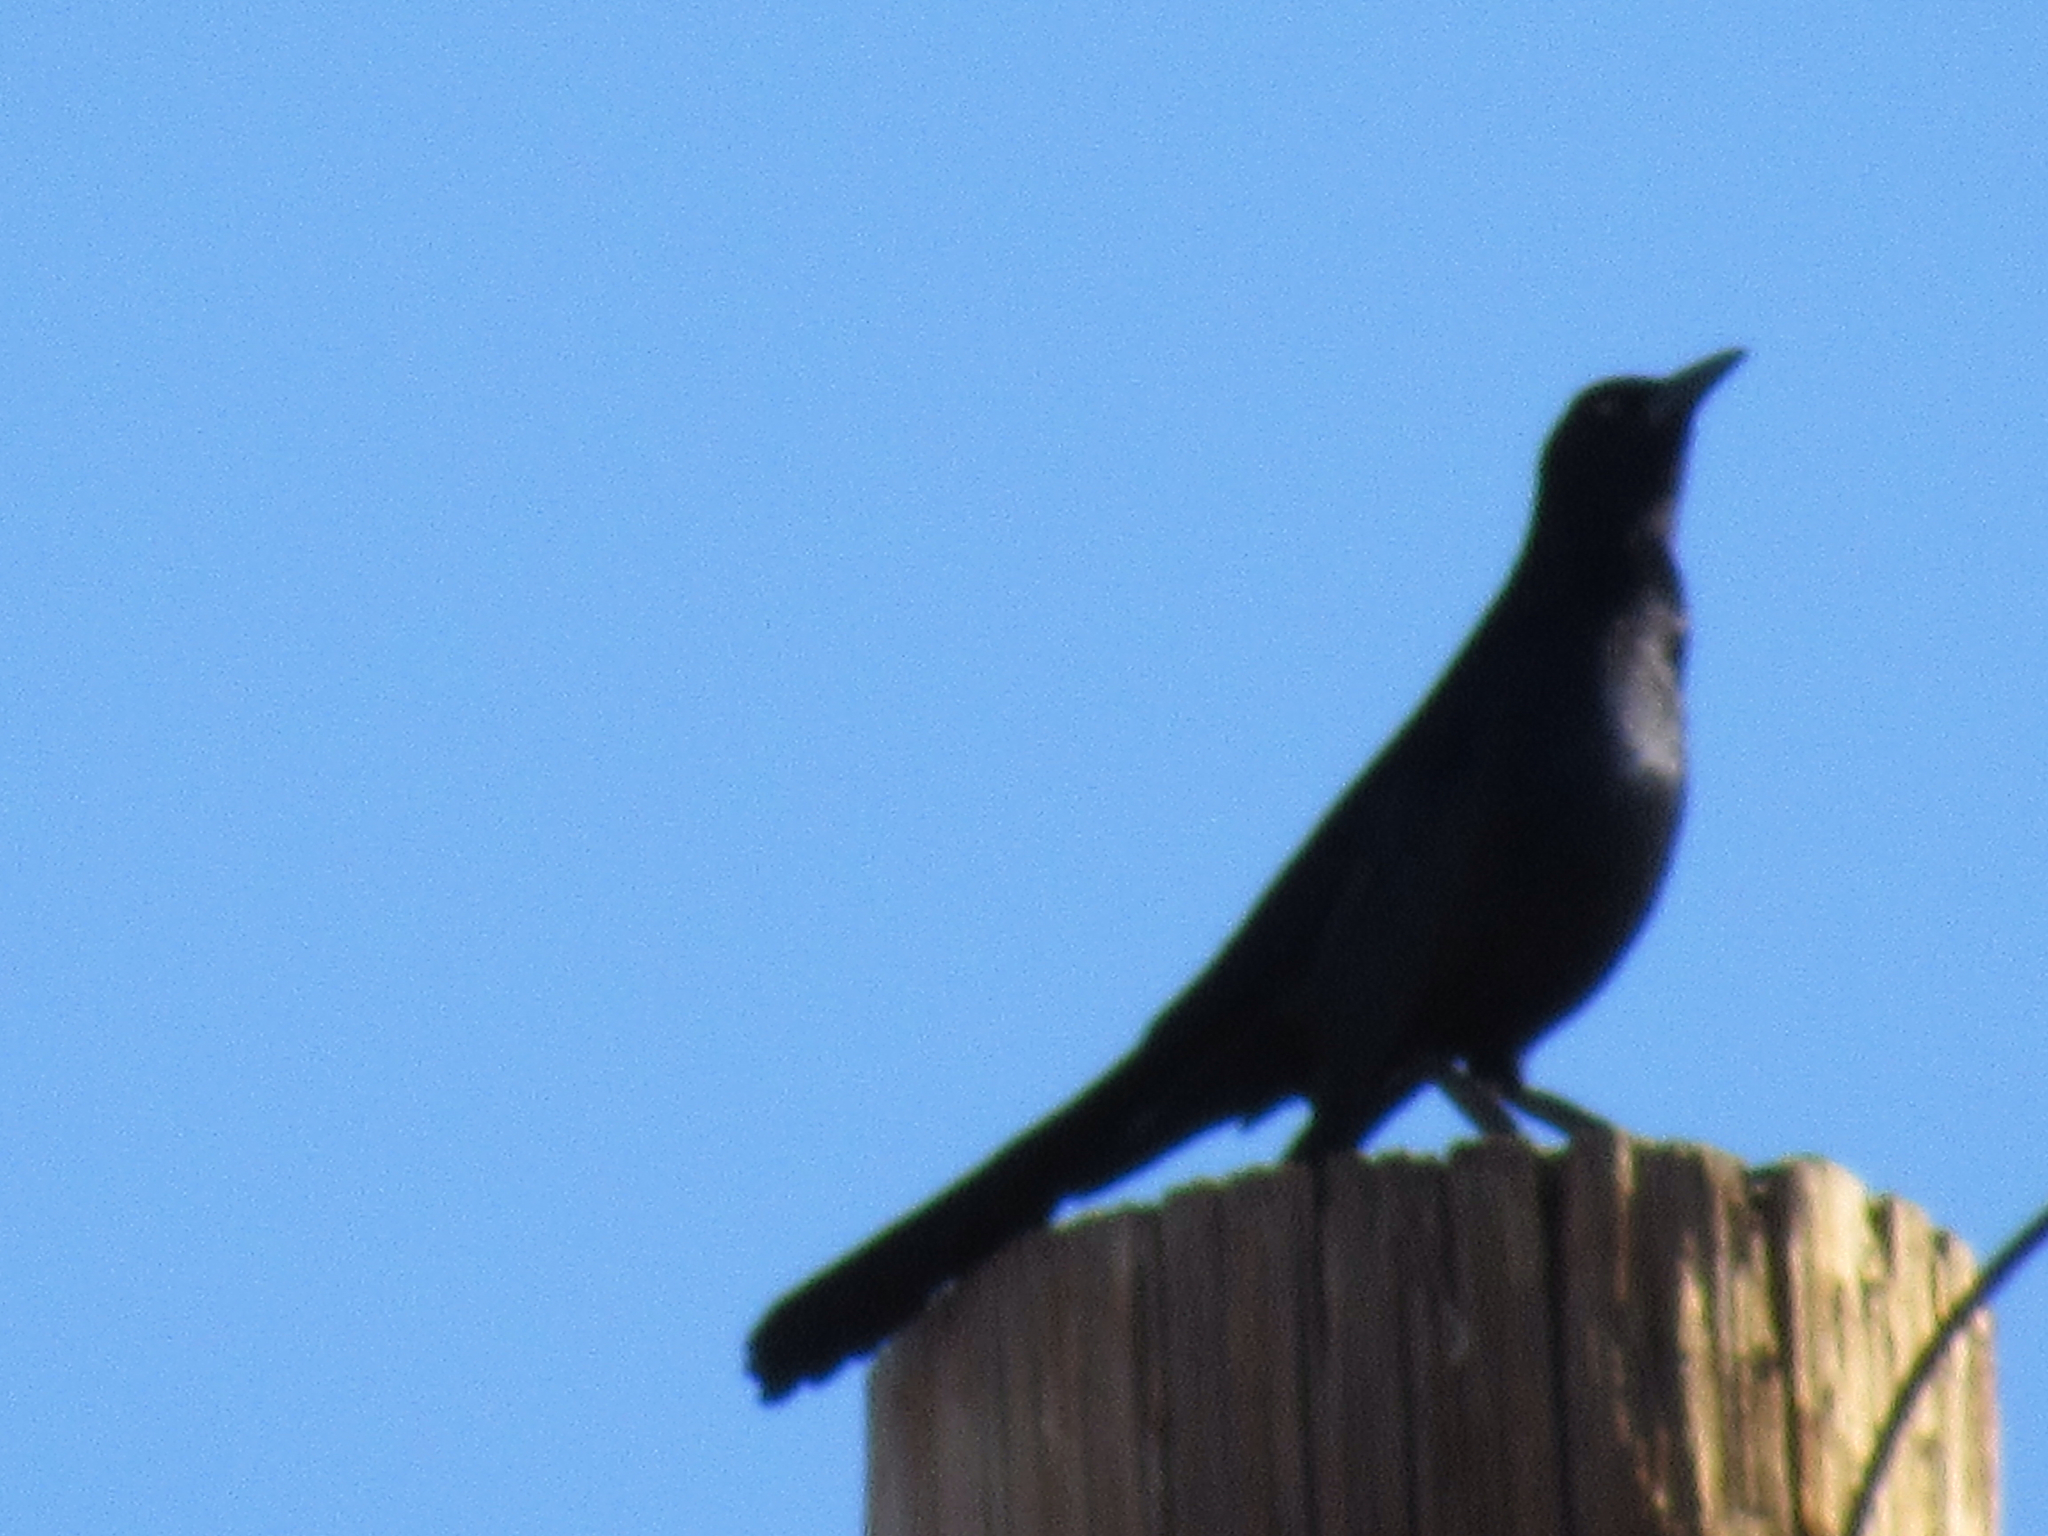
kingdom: Animalia
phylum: Chordata
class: Aves
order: Passeriformes
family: Icteridae
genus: Quiscalus
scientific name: Quiscalus mexicanus
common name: Great-tailed grackle
